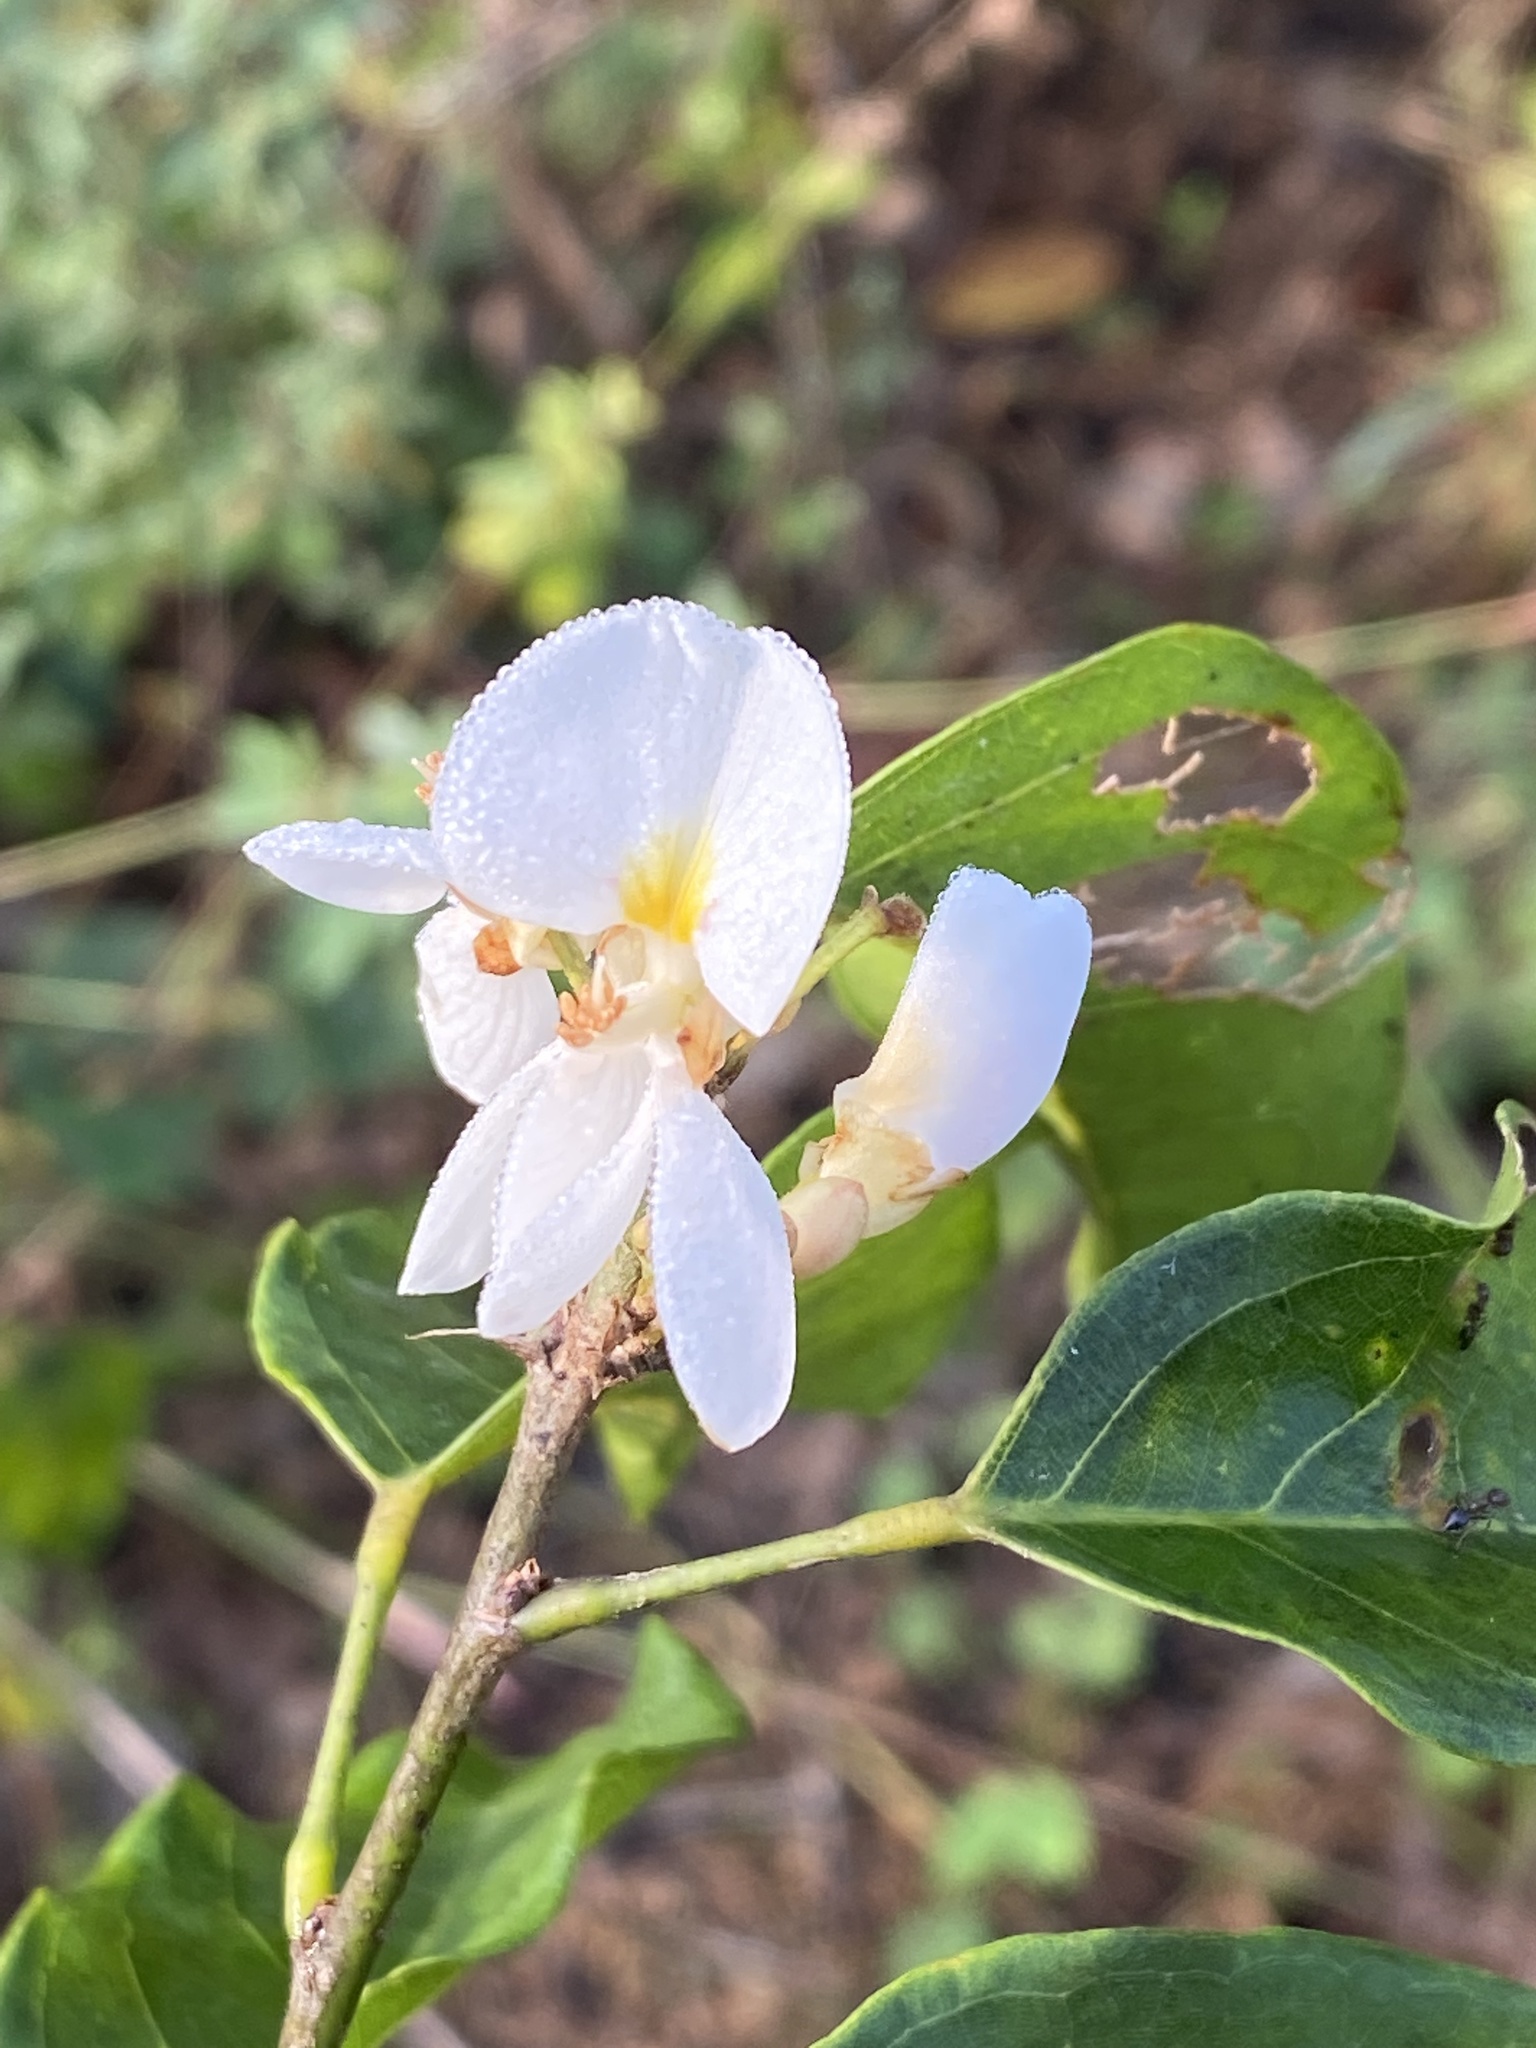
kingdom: Plantae
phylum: Tracheophyta
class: Magnoliopsida
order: Fabales
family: Fabaceae
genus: Baphia
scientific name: Baphia nitida
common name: Camwood
